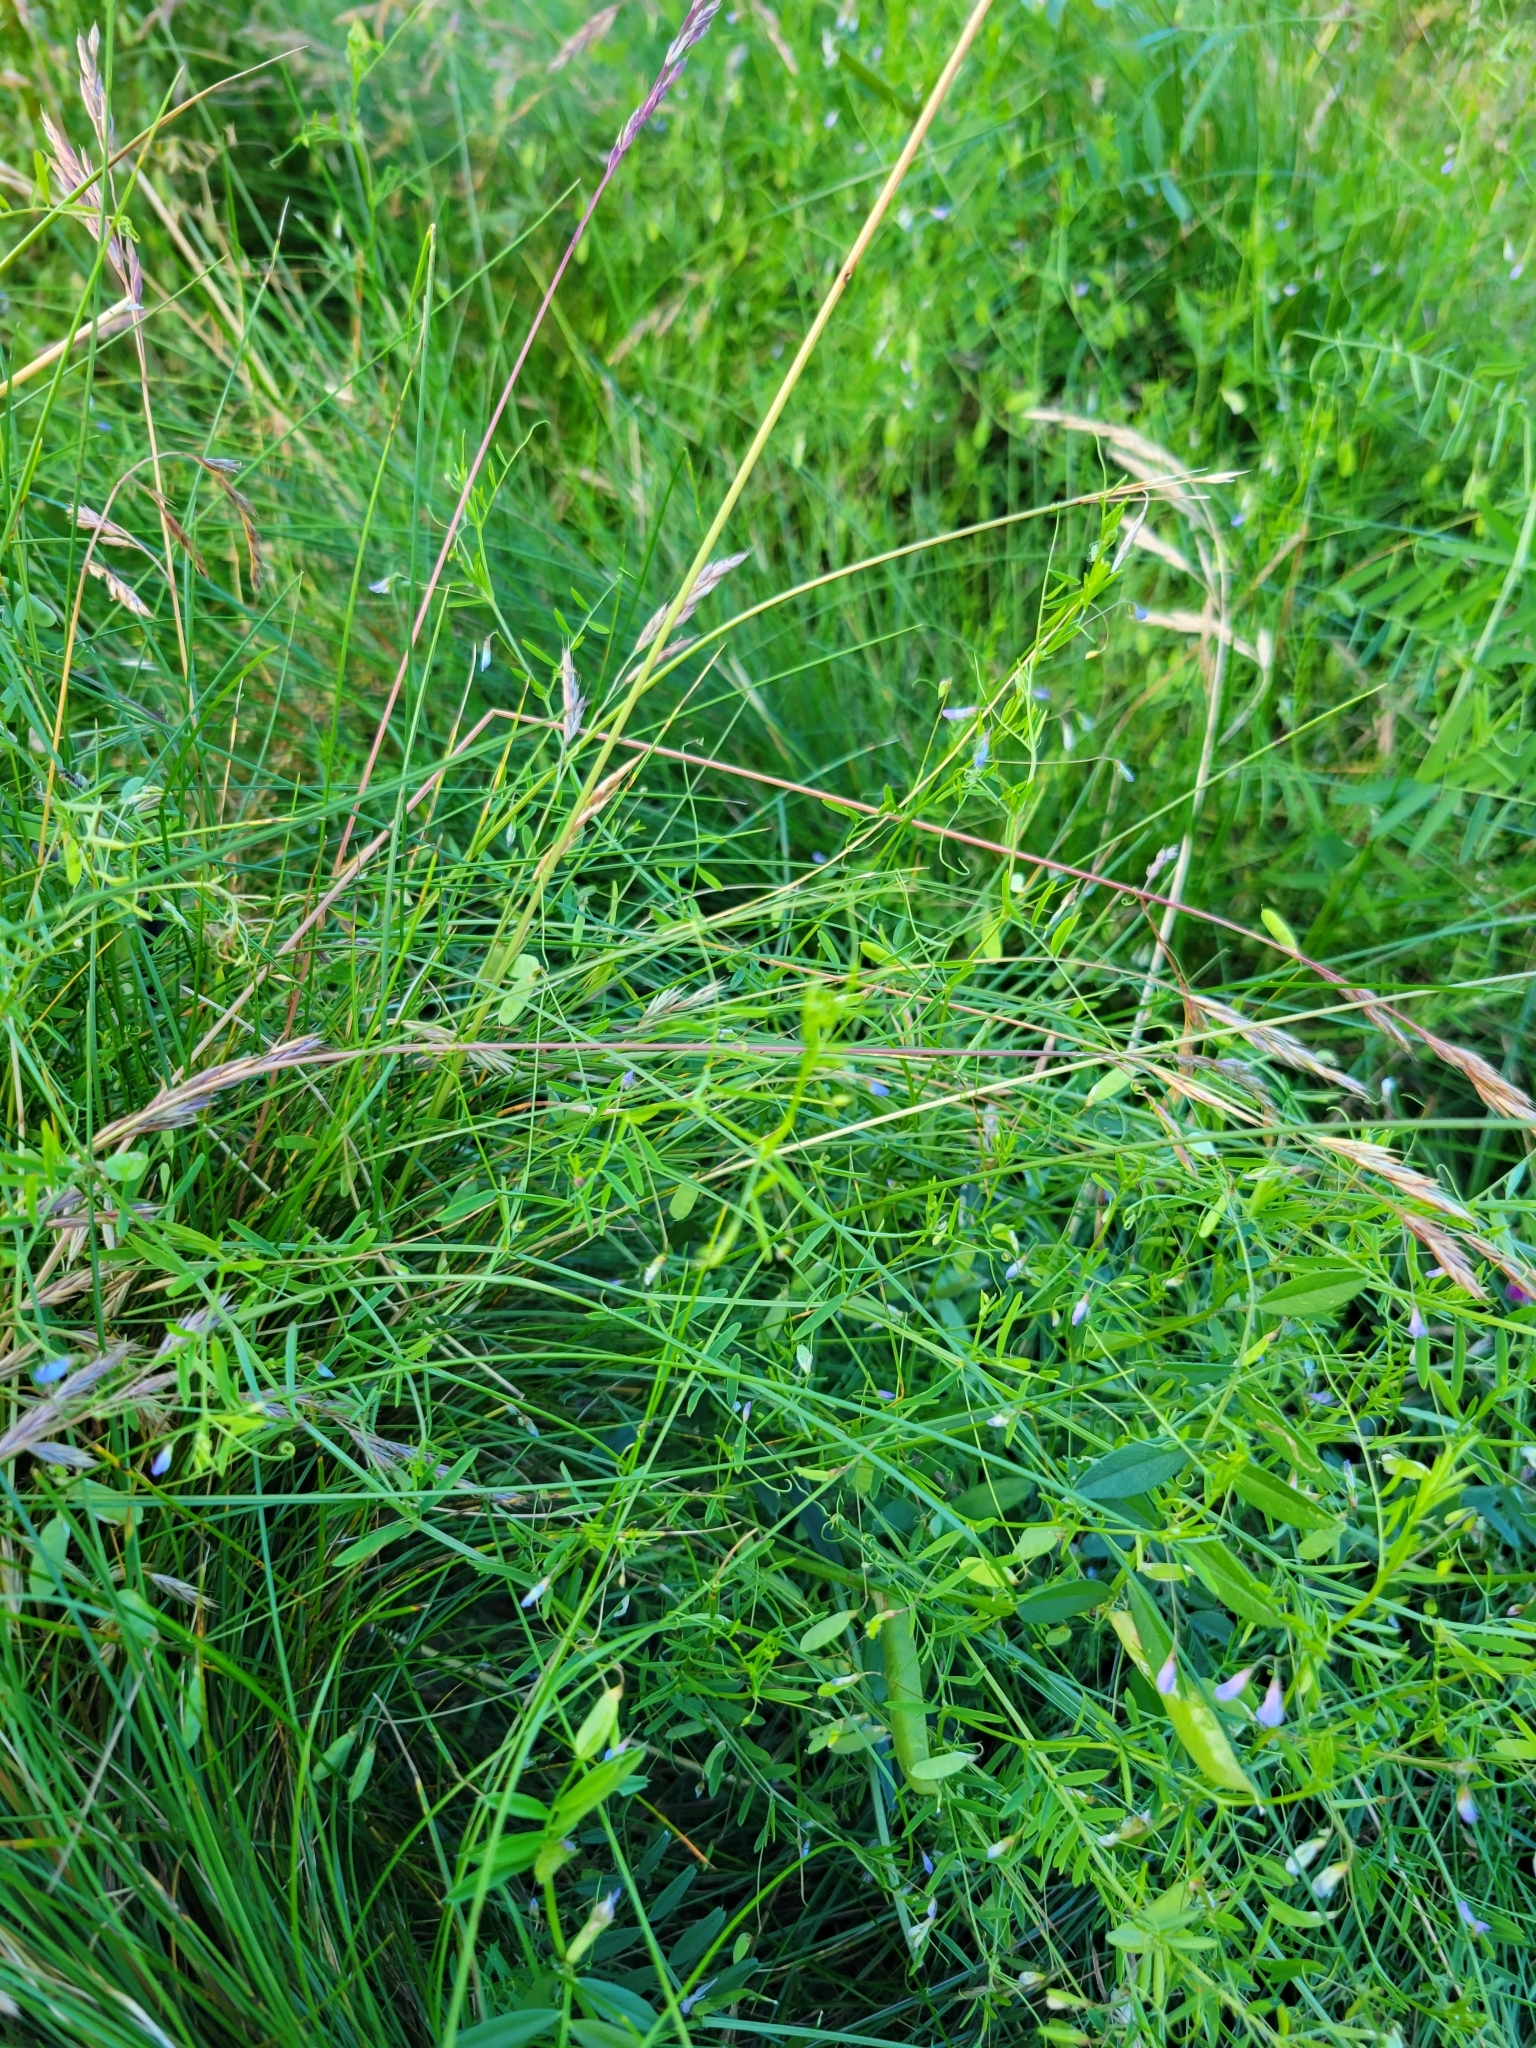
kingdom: Plantae
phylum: Tracheophyta
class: Magnoliopsida
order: Fabales
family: Fabaceae
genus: Vicia
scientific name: Vicia tetrasperma
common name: Smooth tare
